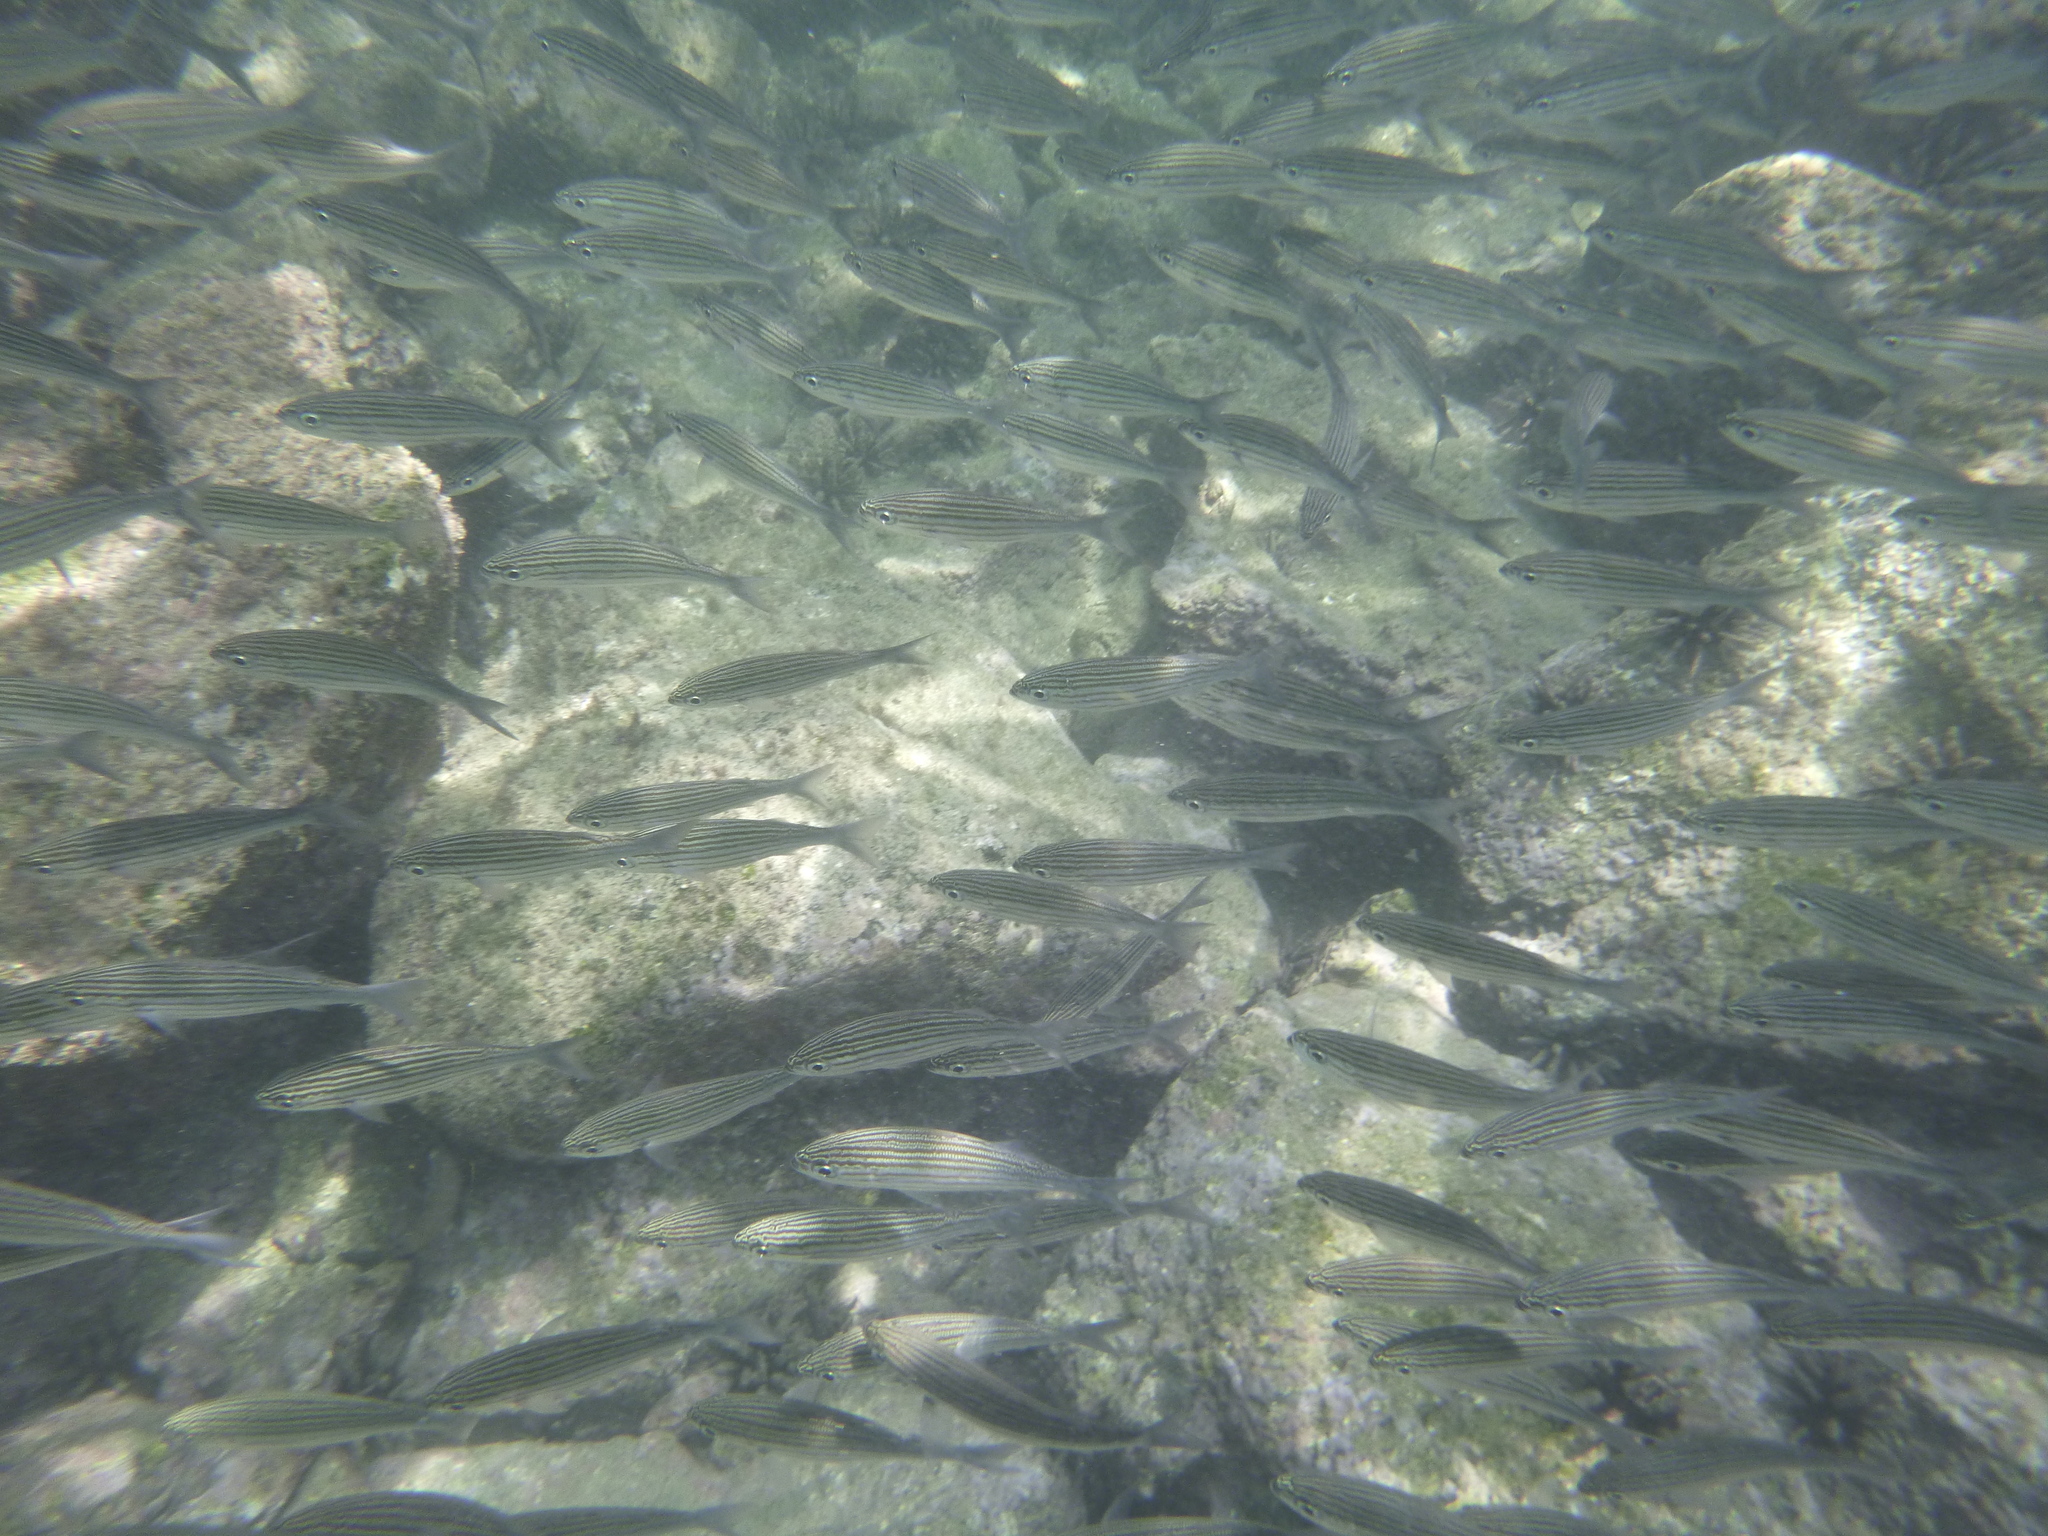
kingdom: Animalia
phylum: Chordata
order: Perciformes
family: Haemulidae
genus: Xenocys
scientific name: Xenocys jessiae
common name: Black-striped salema
